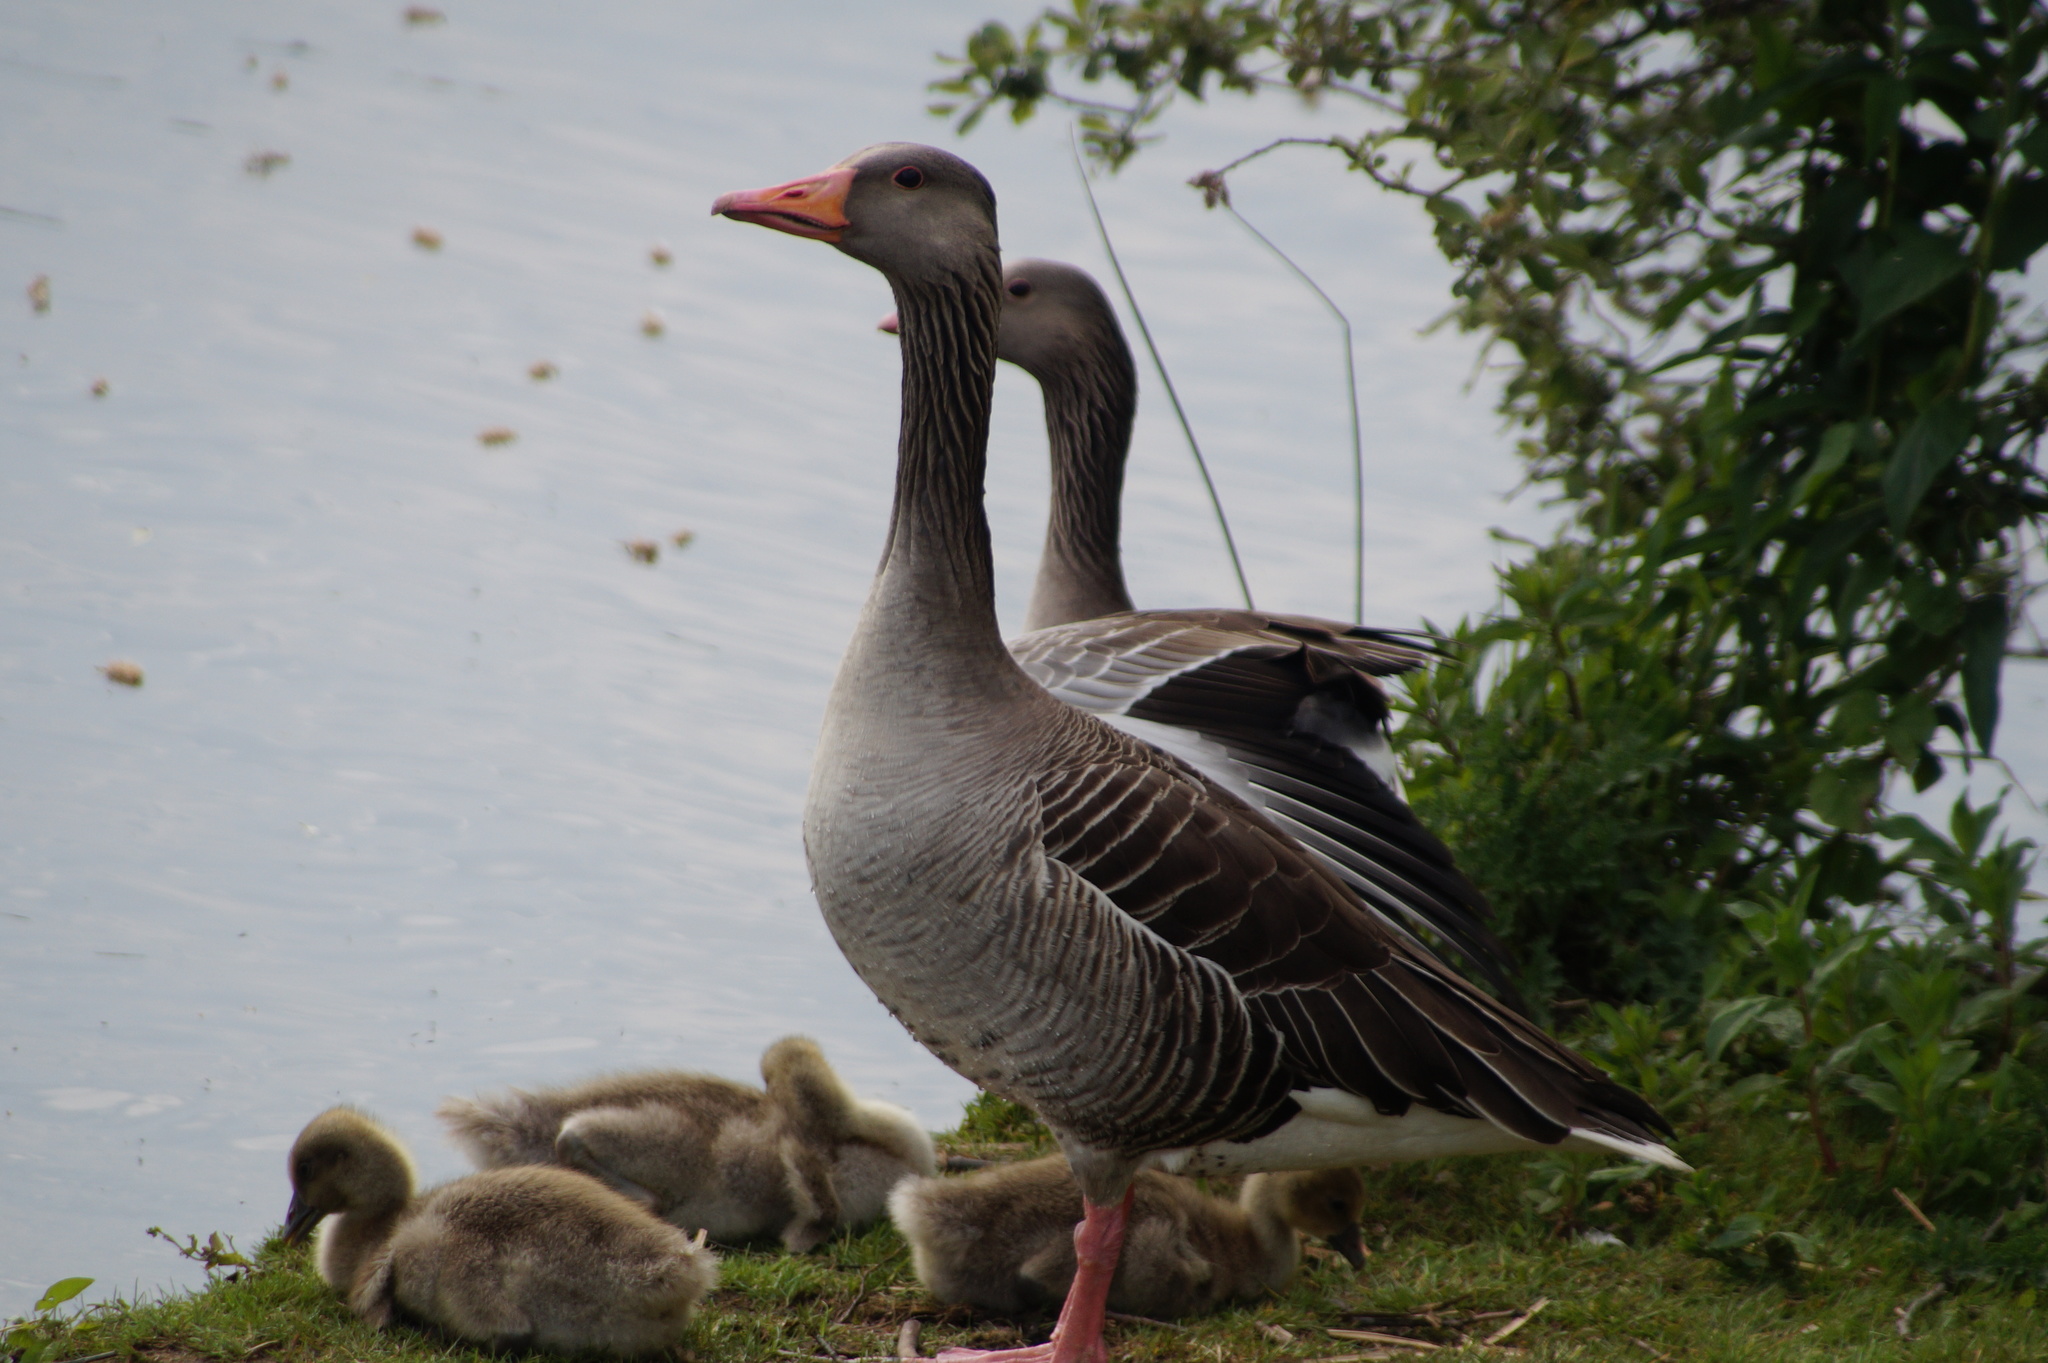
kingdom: Animalia
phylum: Chordata
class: Aves
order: Anseriformes
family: Anatidae
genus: Anser
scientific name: Anser anser
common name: Greylag goose
